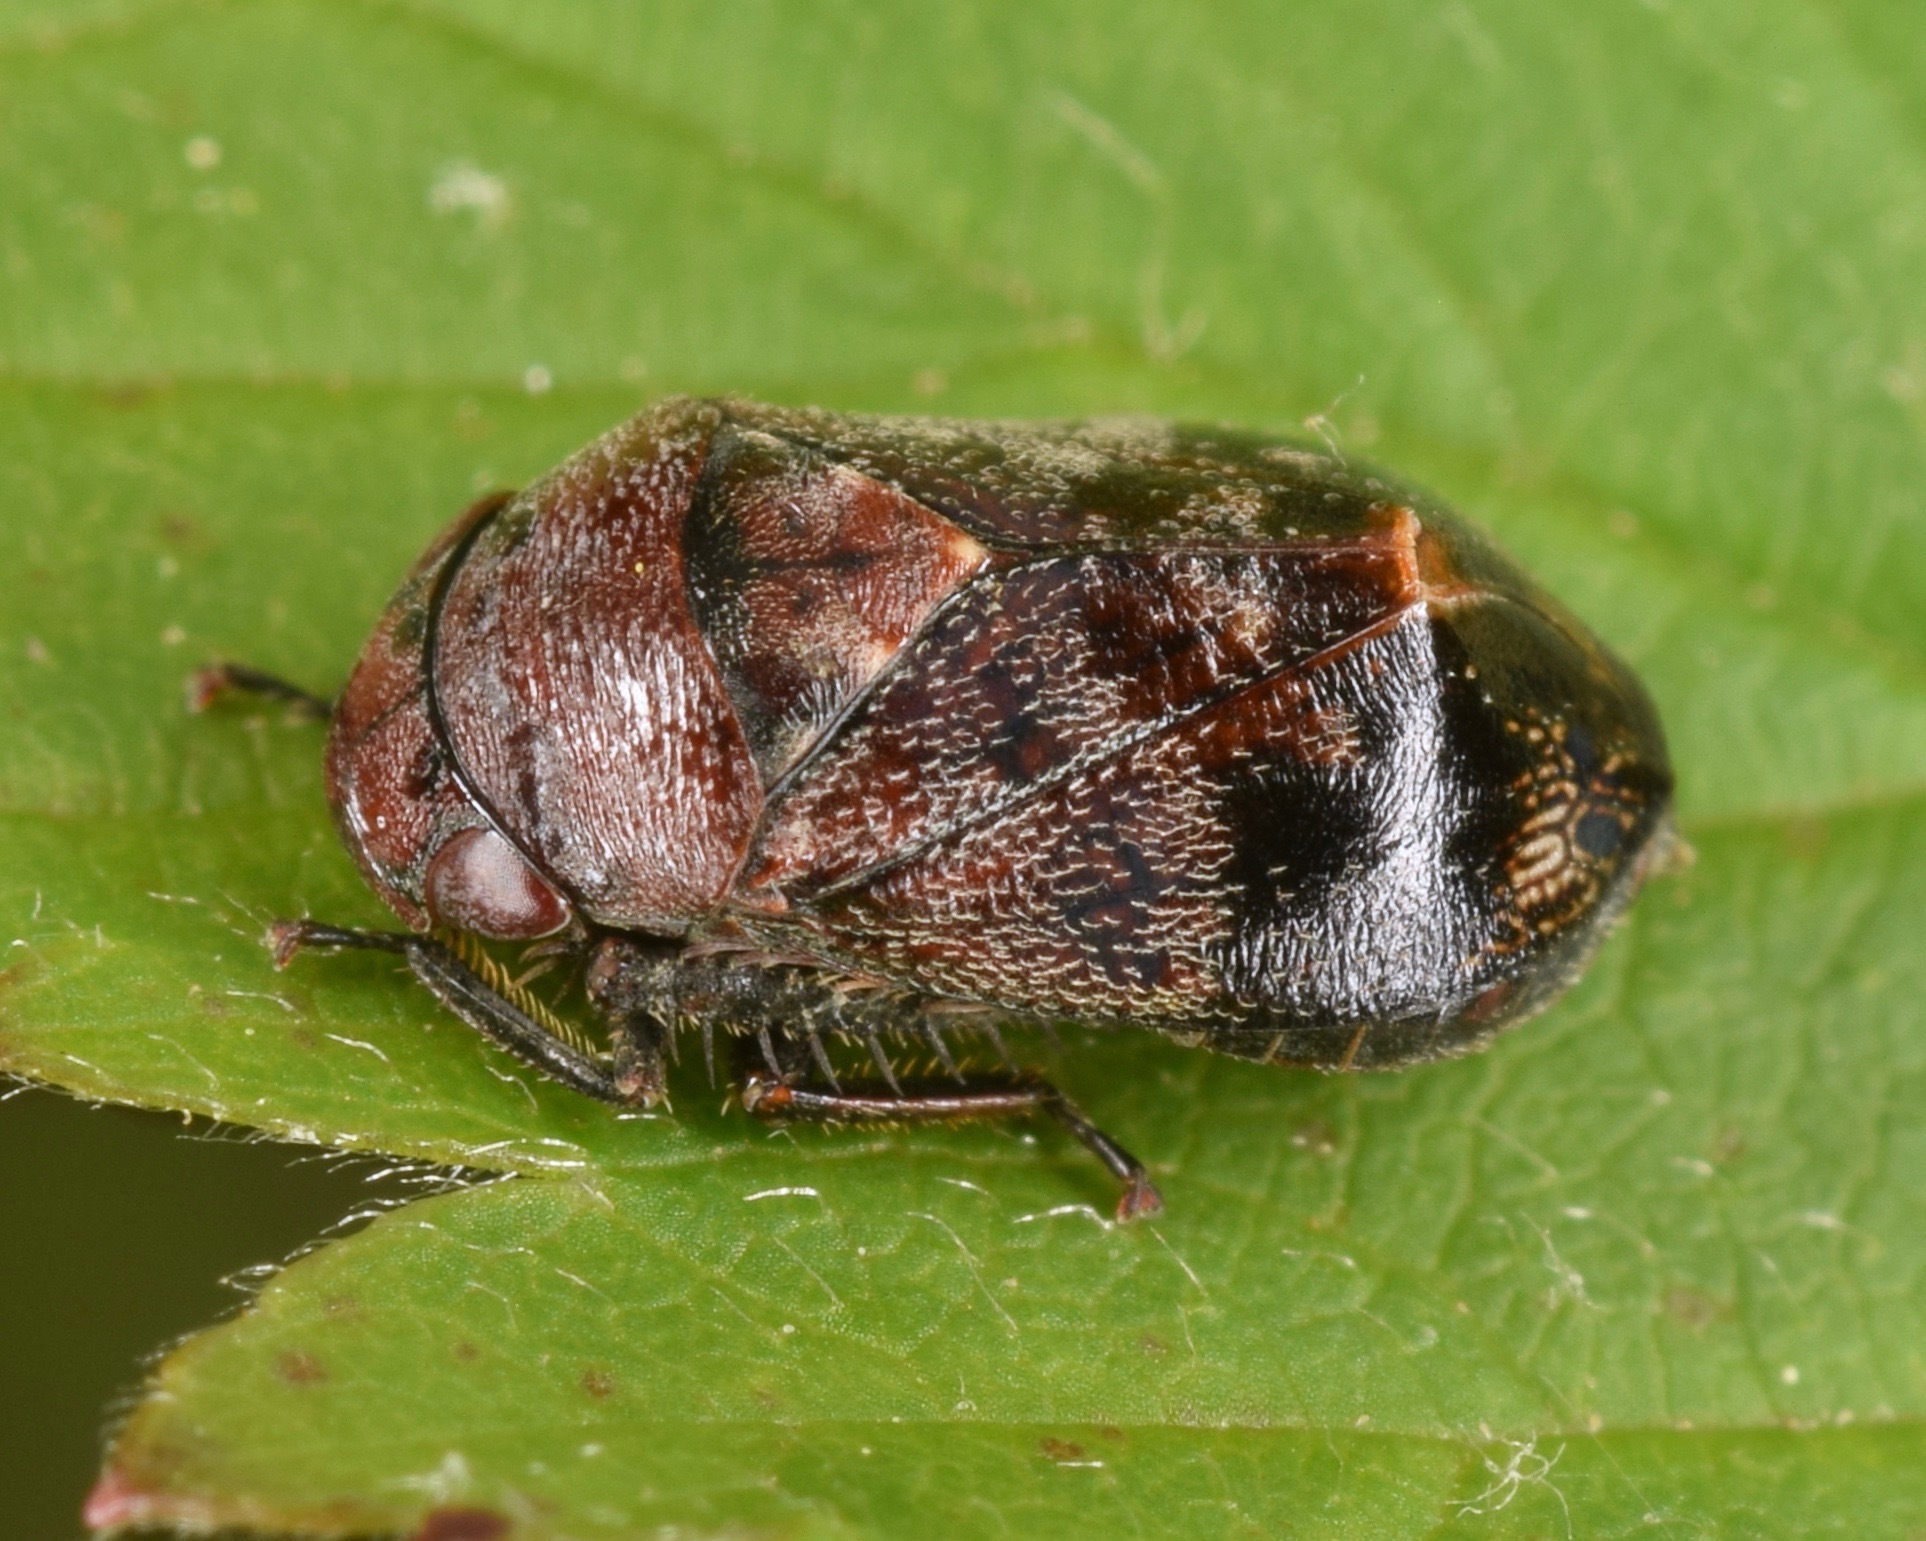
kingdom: Animalia
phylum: Arthropoda
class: Insecta
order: Hemiptera
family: Cicadellidae
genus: Penthimia
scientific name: Penthimia americana
